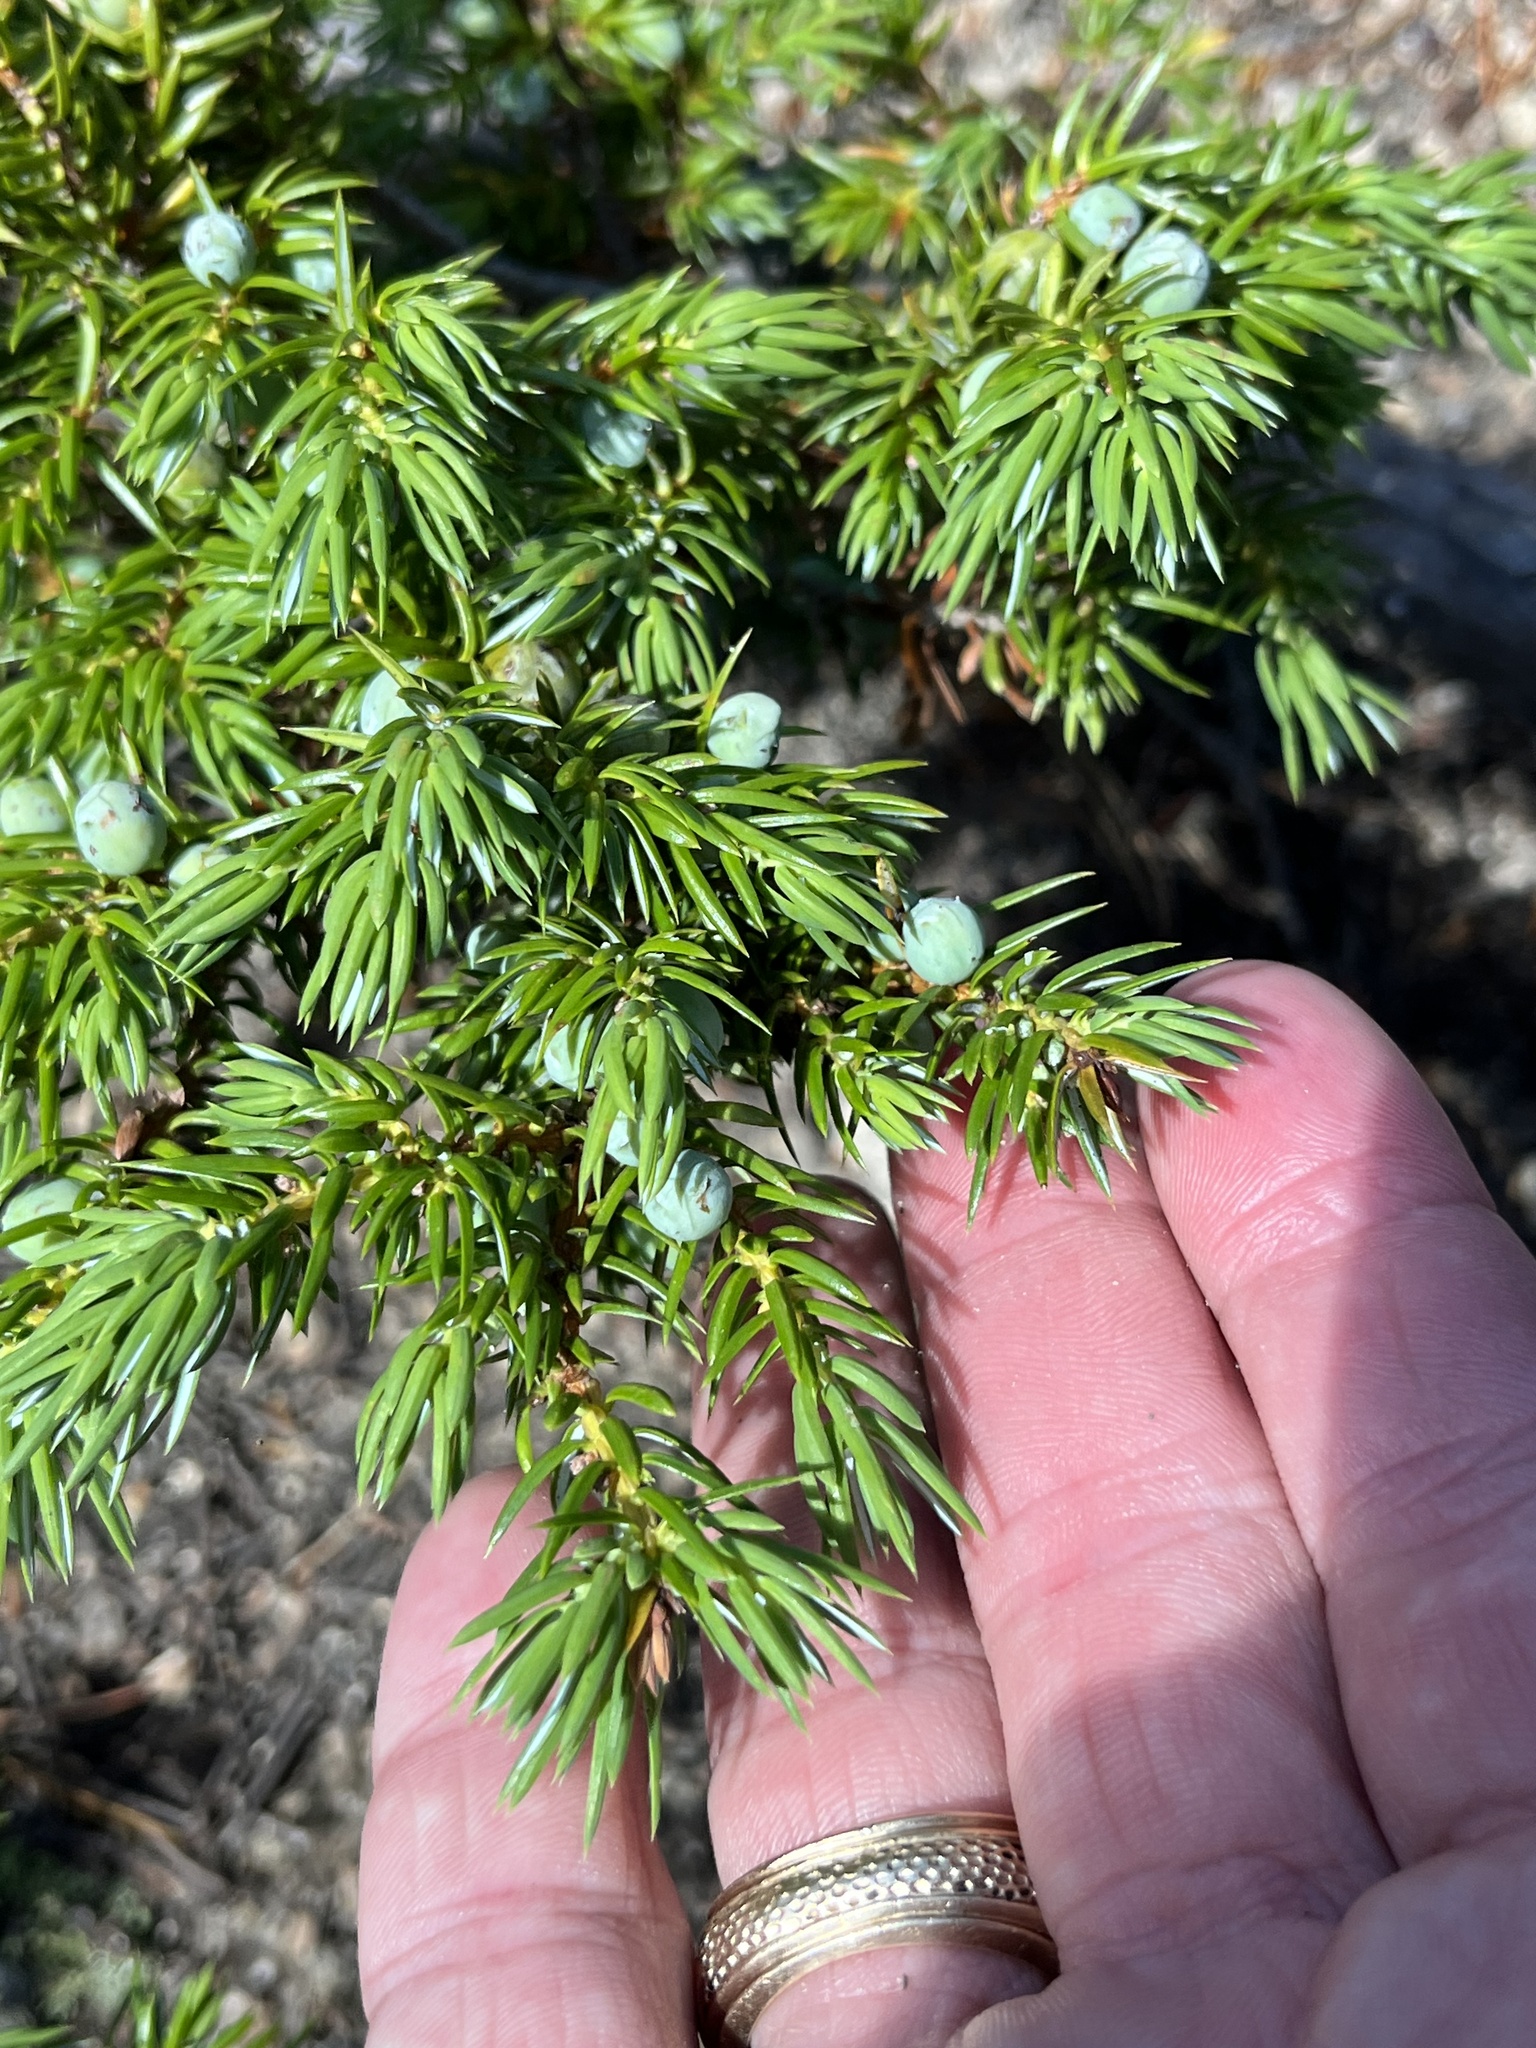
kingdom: Plantae
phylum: Tracheophyta
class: Pinopsida
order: Pinales
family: Cupressaceae
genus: Juniperus
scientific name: Juniperus communis
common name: Common juniper
